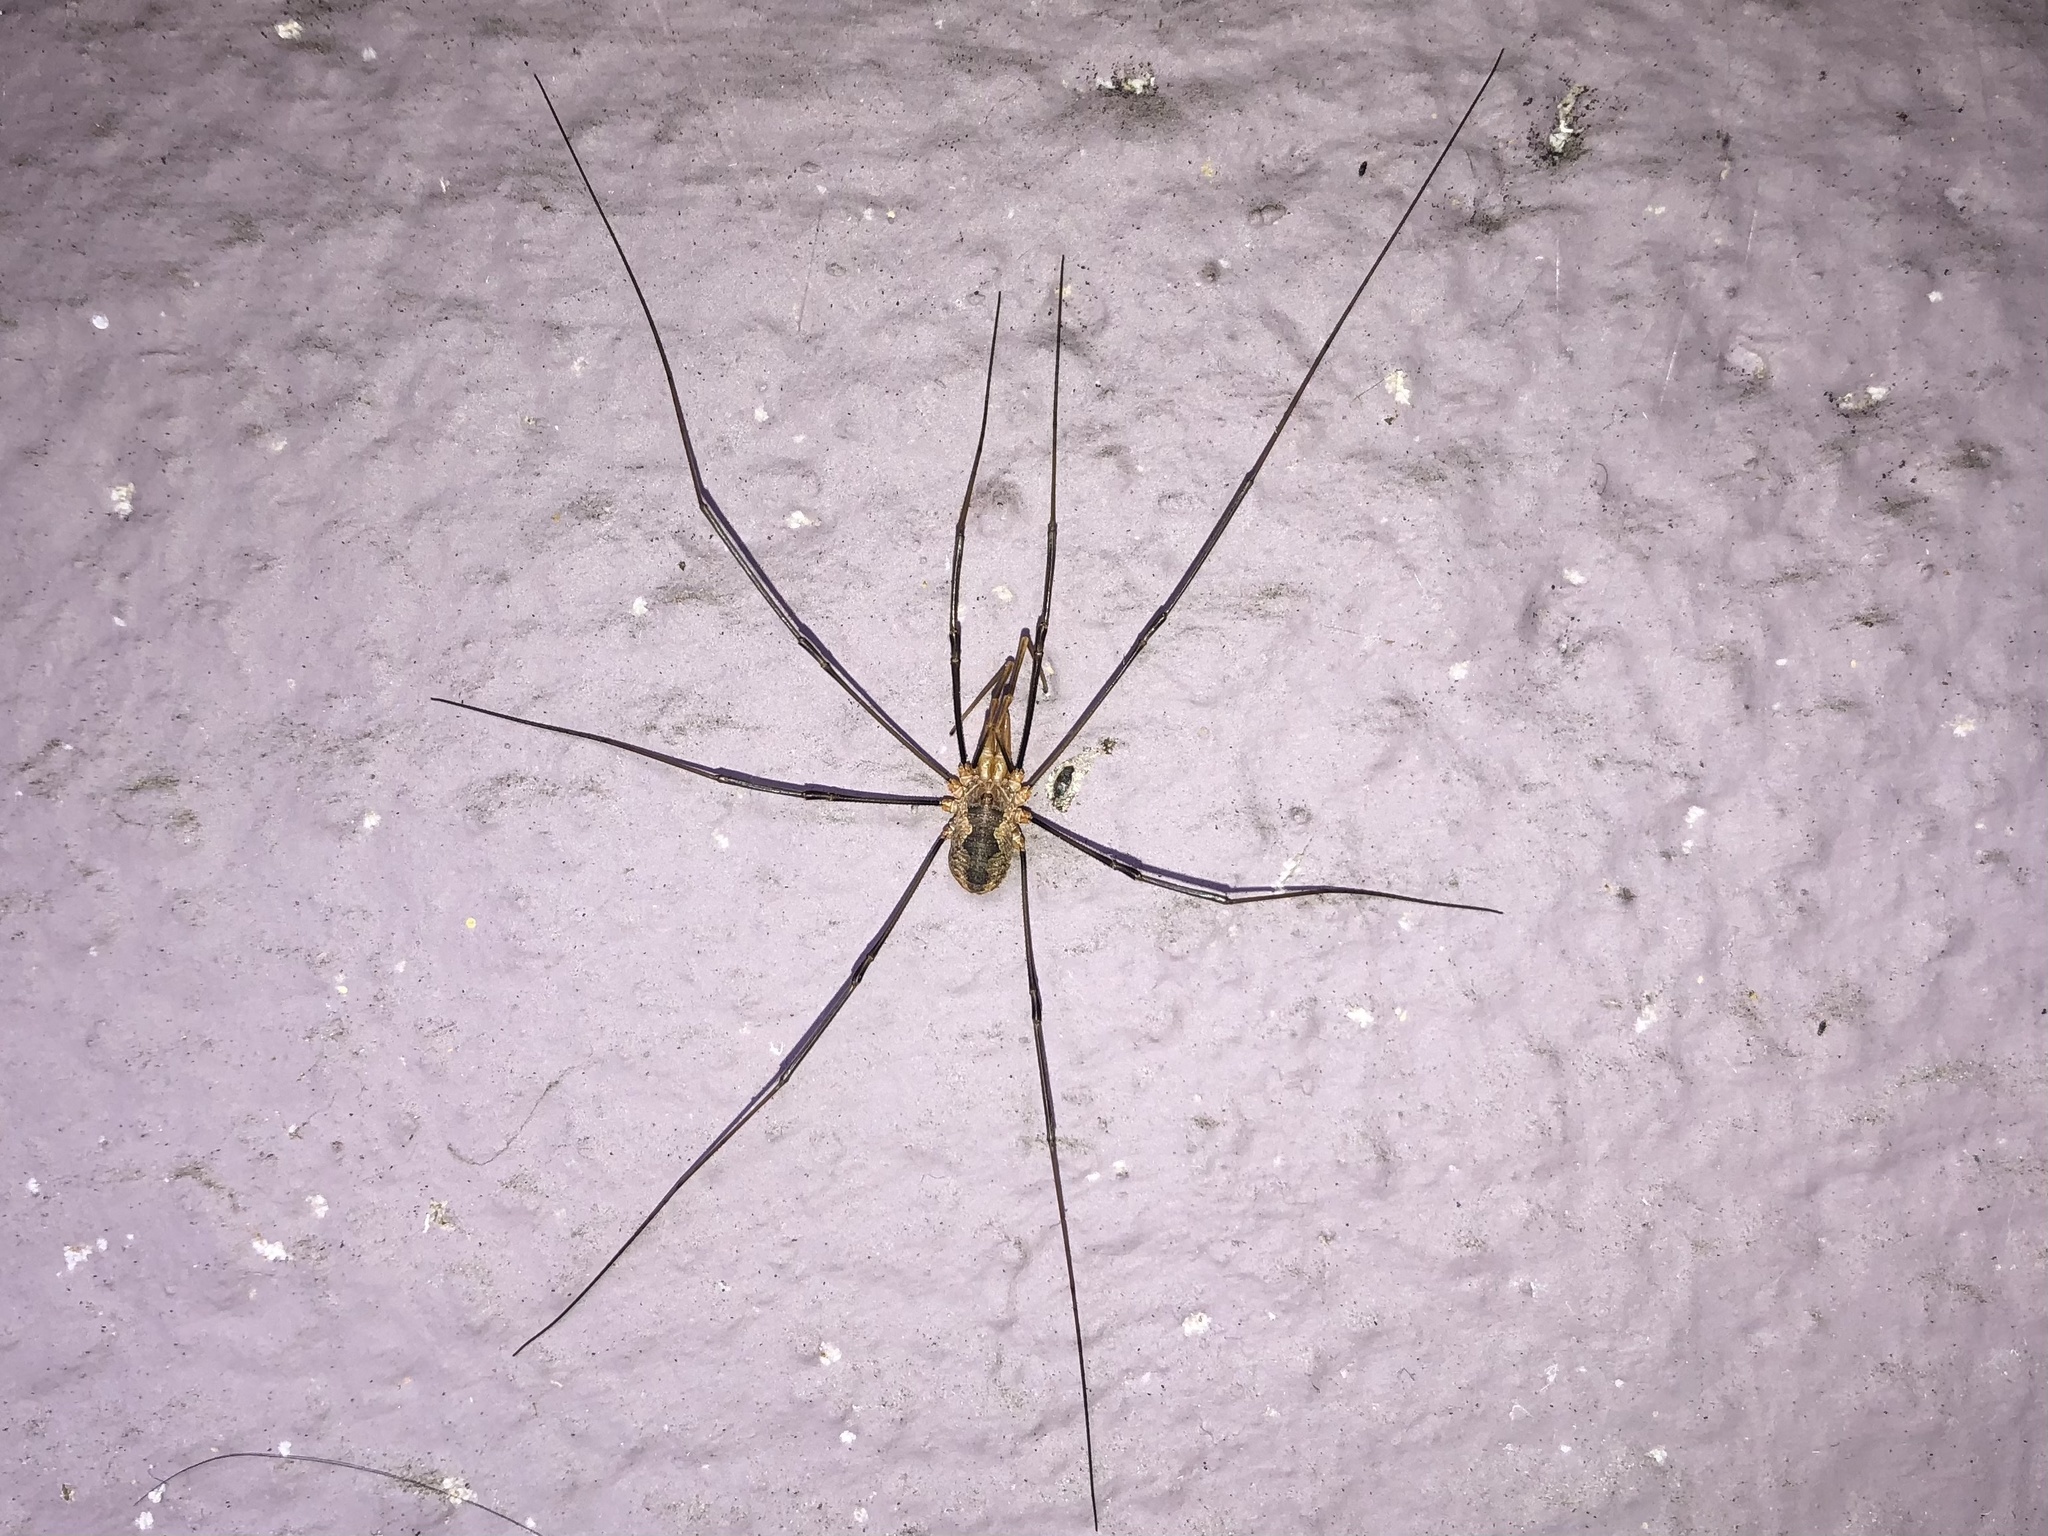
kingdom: Animalia
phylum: Arthropoda
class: Arachnida
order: Opiliones
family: Phalangiidae
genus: Phalangium
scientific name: Phalangium opilio
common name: Daddy longleg
